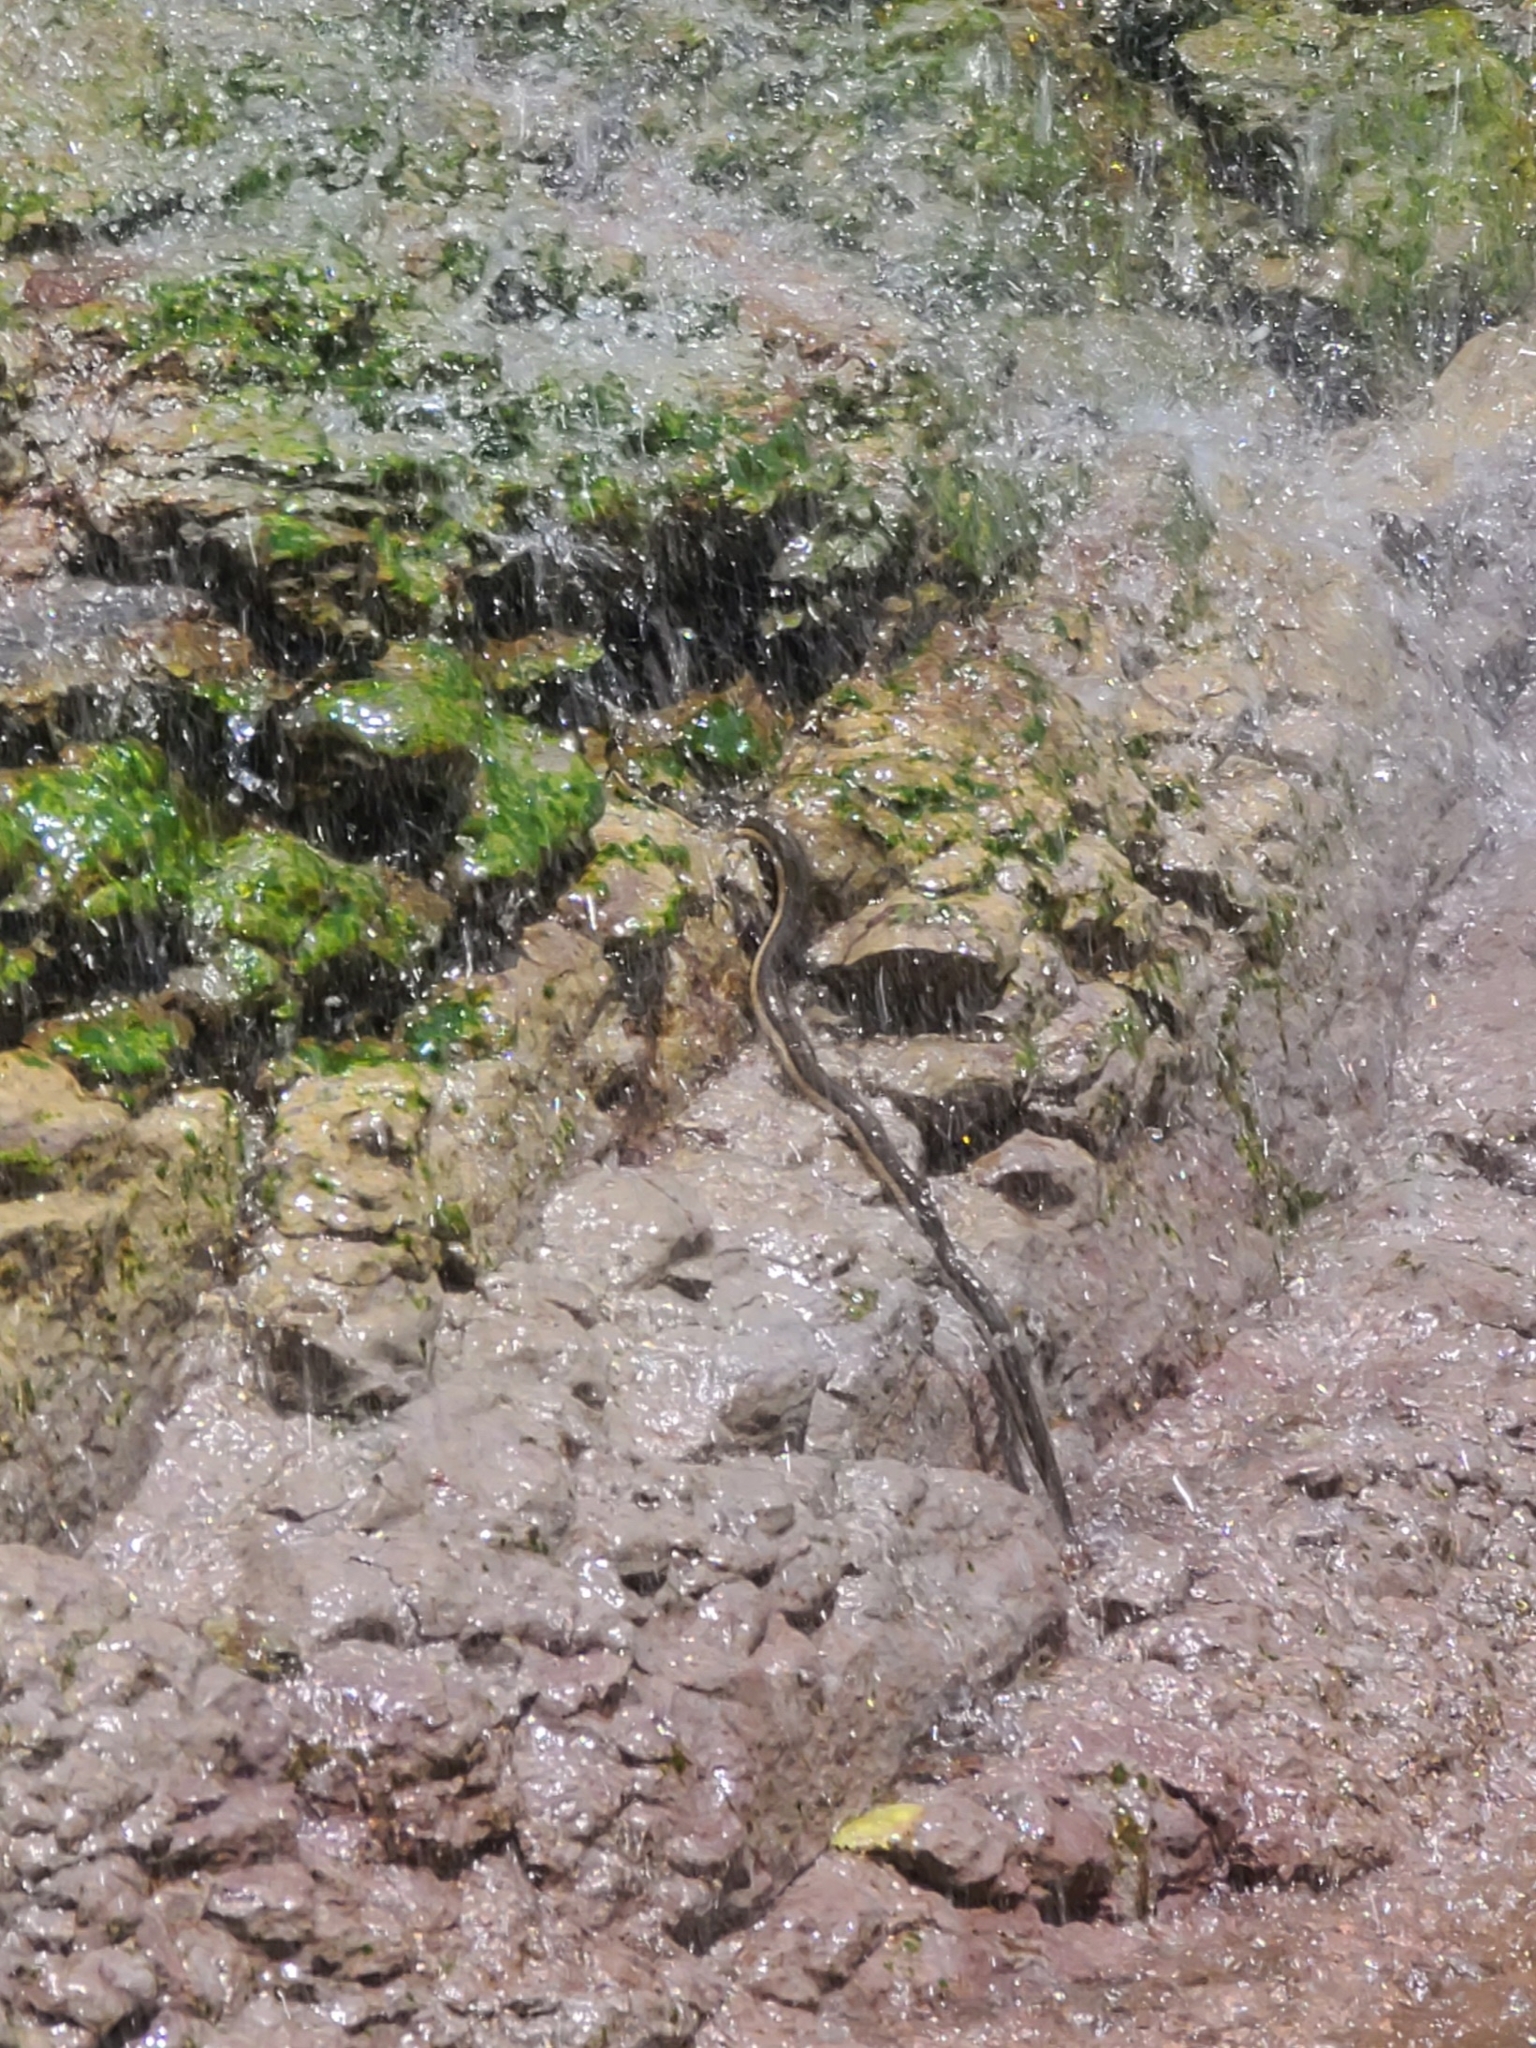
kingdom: Animalia
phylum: Chordata
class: Squamata
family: Colubridae
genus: Regina
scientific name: Regina grahamii
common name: Graham's crayfish snake
